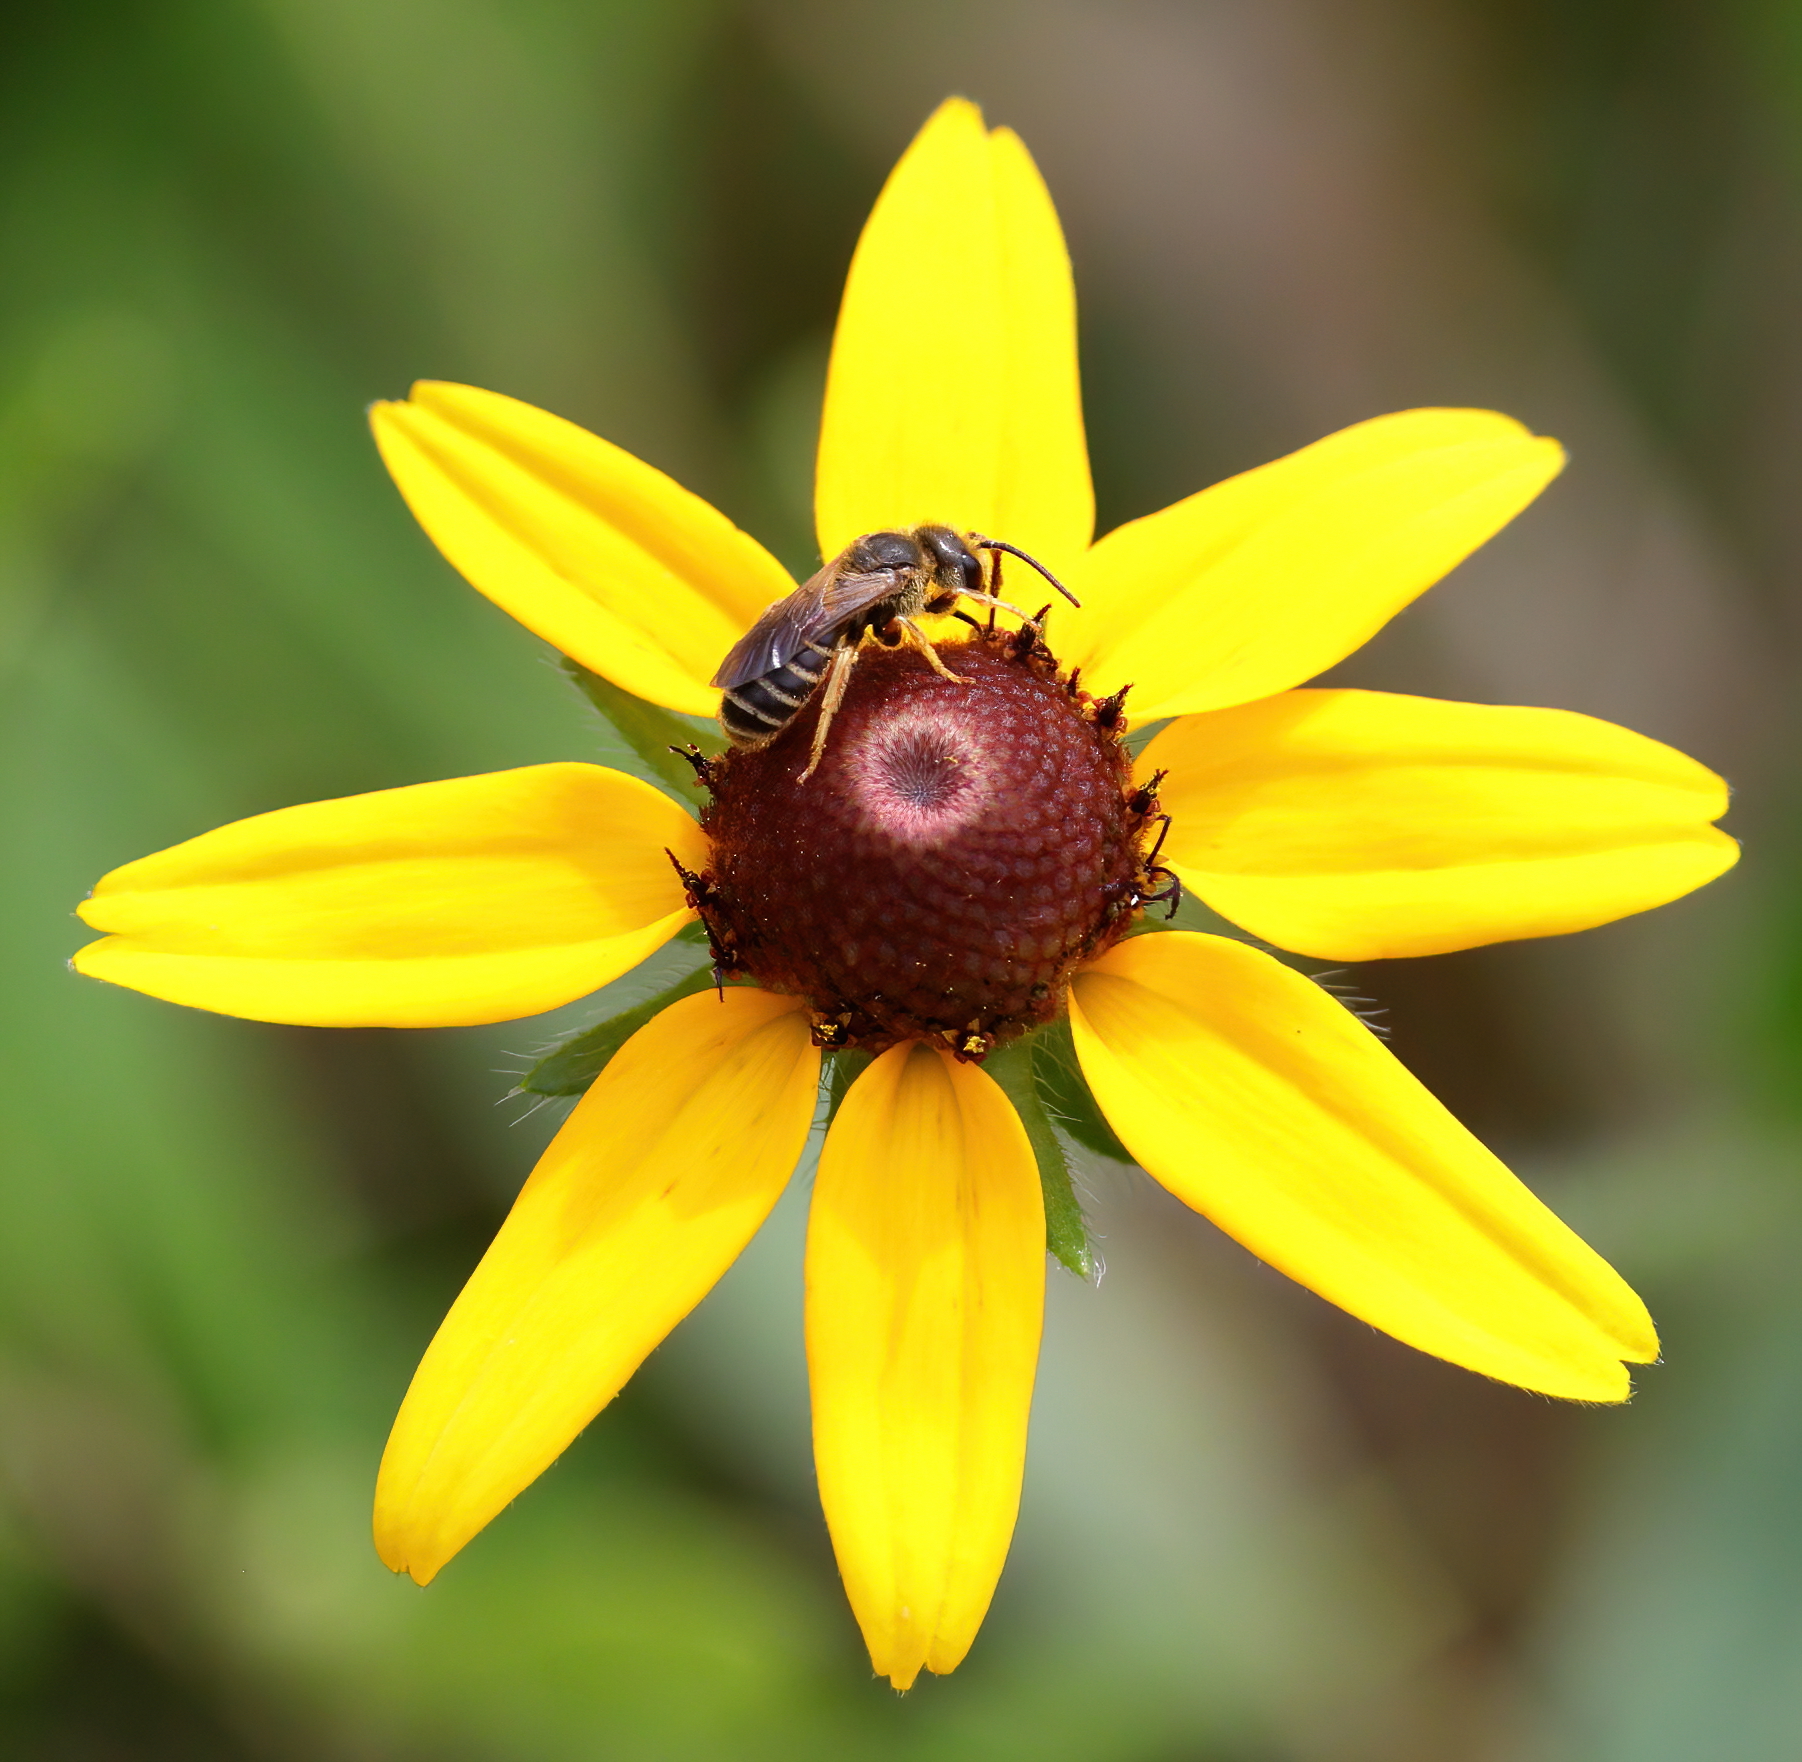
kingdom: Animalia
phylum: Arthropoda
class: Insecta
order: Hymenoptera
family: Halictidae
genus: Halictus
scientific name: Halictus poeyi
